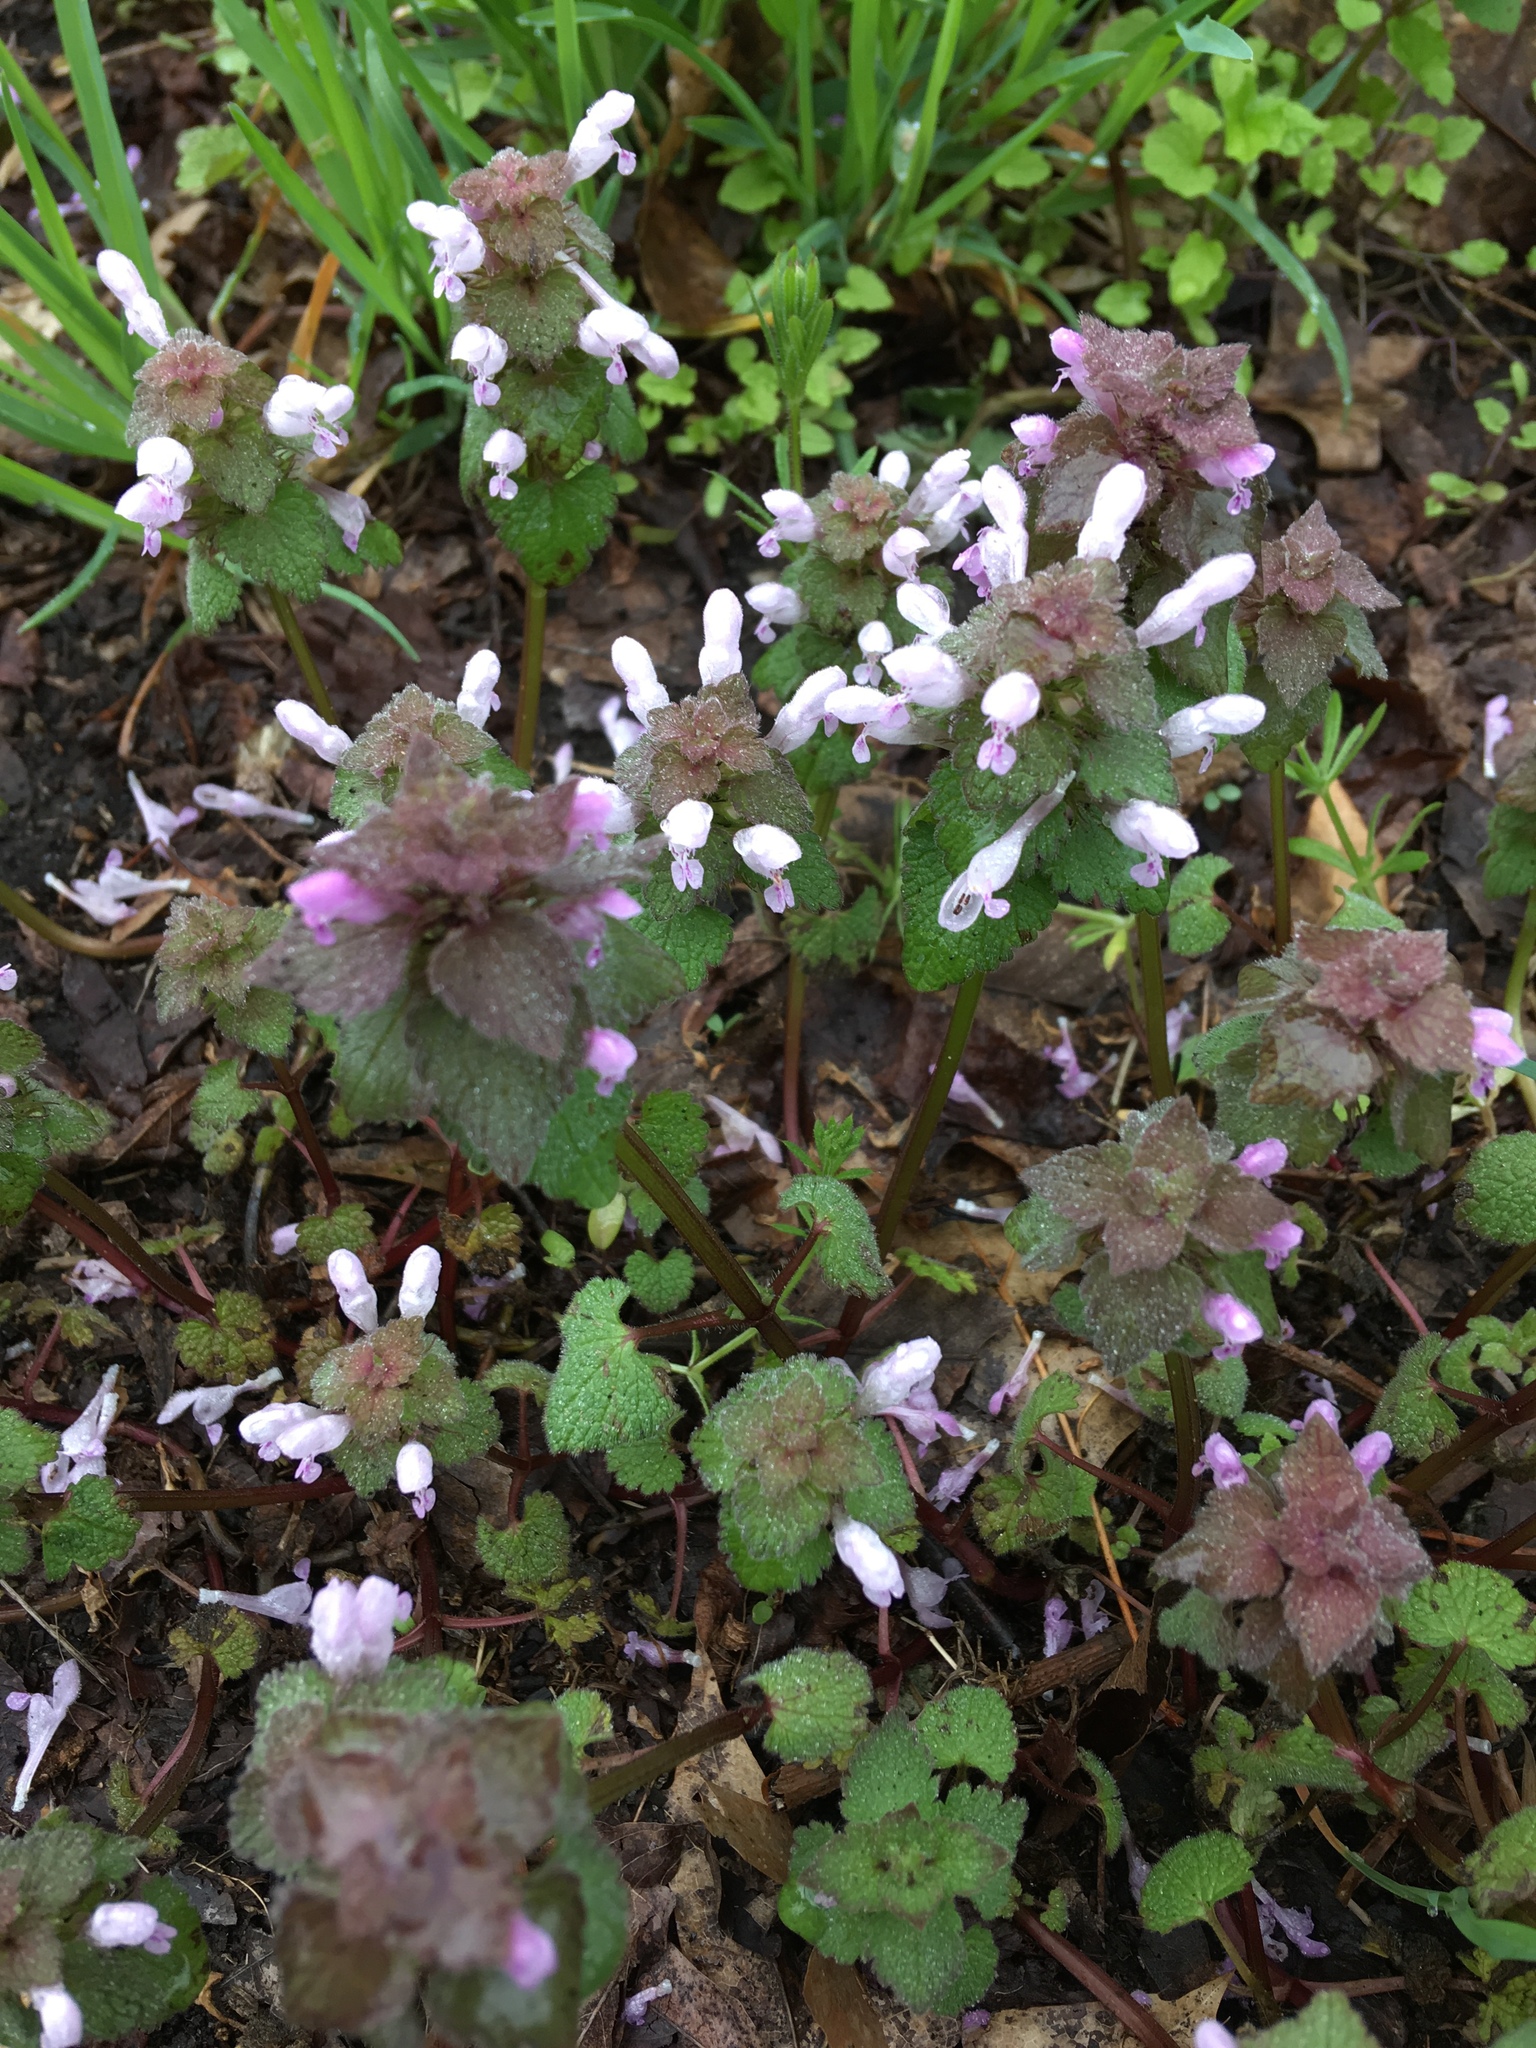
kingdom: Plantae
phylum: Tracheophyta
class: Magnoliopsida
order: Lamiales
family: Lamiaceae
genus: Lamium
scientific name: Lamium purpureum
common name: Red dead-nettle
